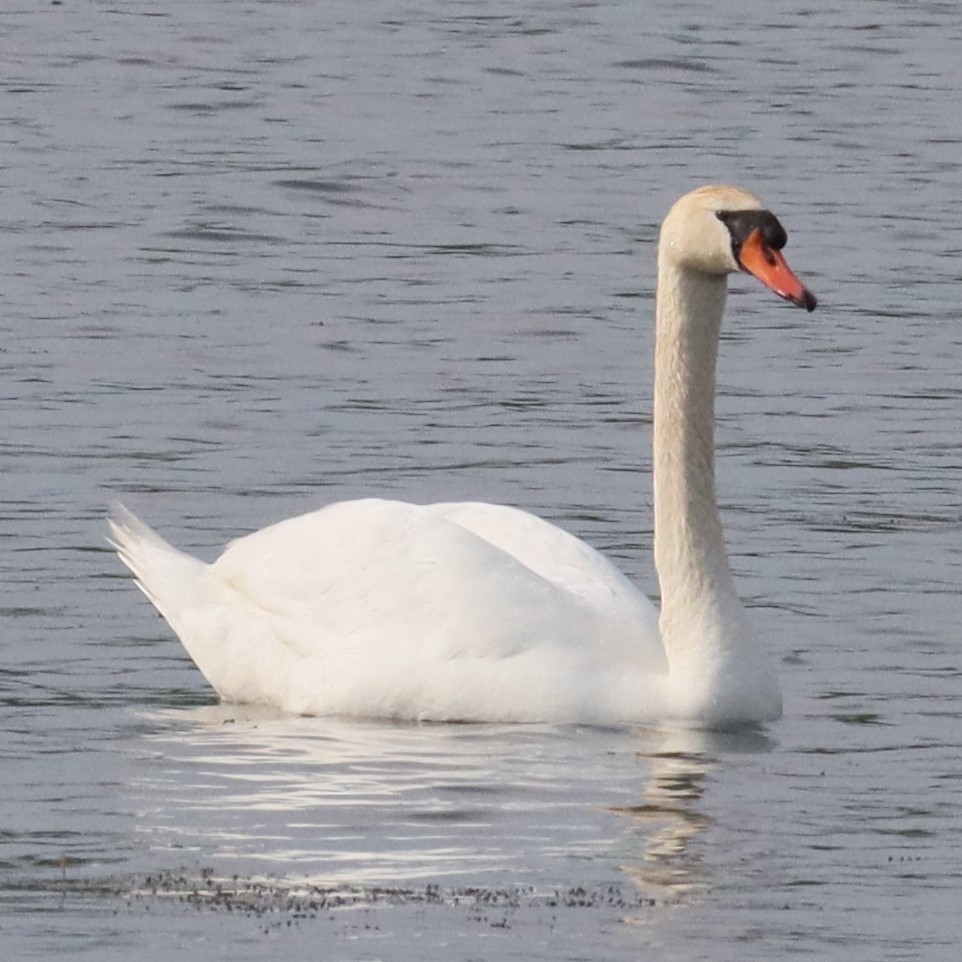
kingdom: Animalia
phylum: Chordata
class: Aves
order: Anseriformes
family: Anatidae
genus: Cygnus
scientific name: Cygnus olor
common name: Mute swan
